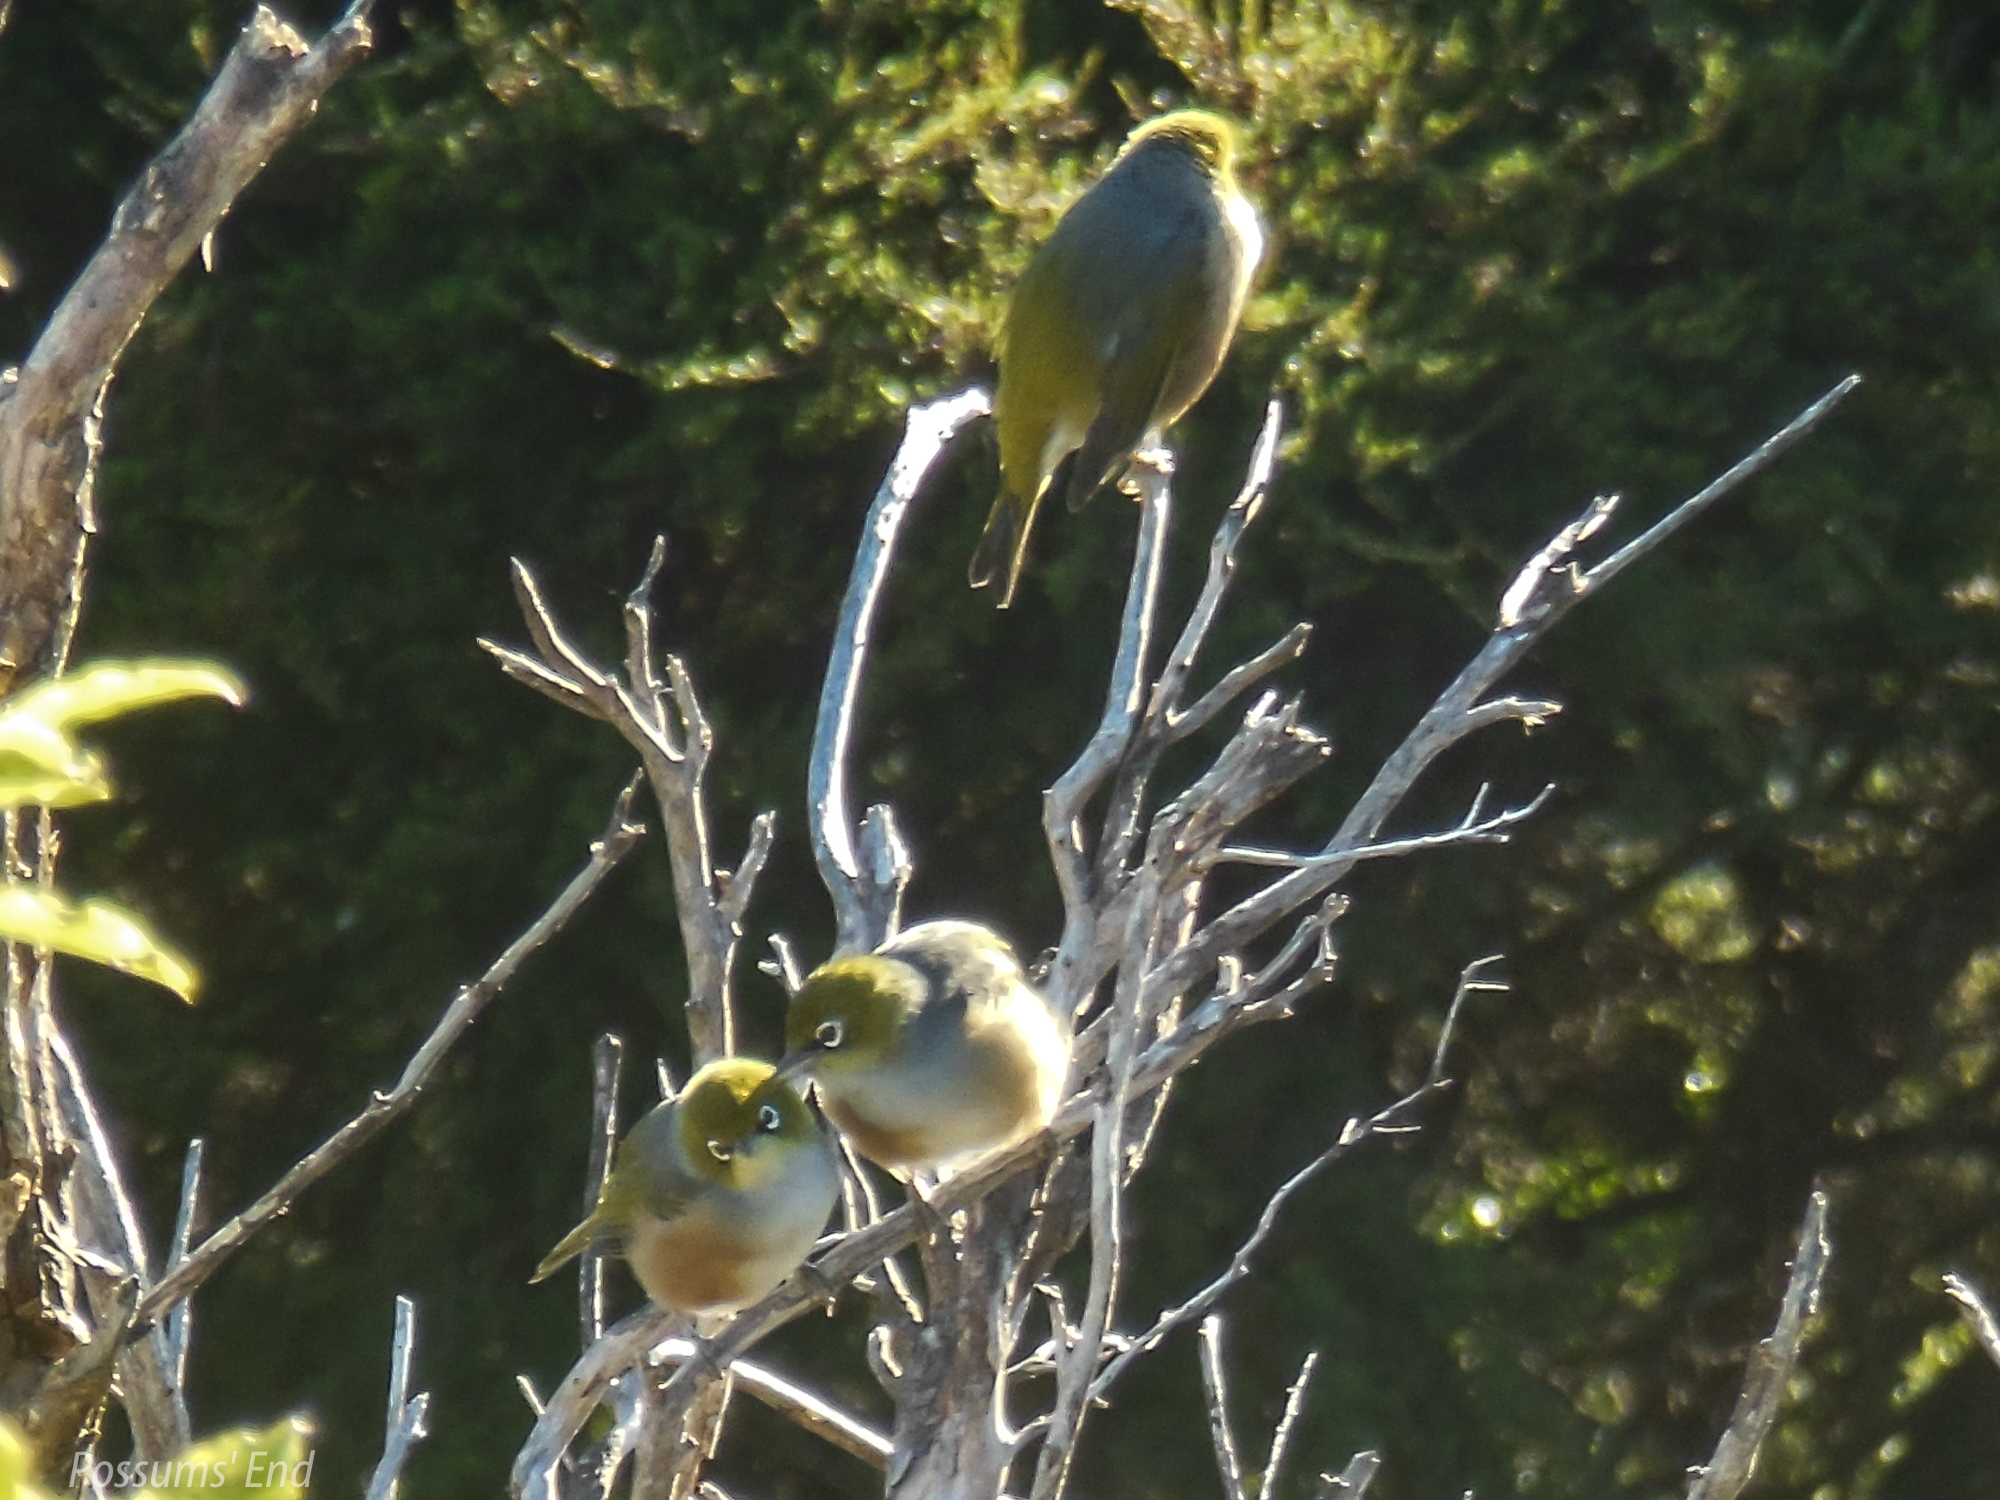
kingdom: Animalia
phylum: Chordata
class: Aves
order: Passeriformes
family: Zosteropidae
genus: Zosterops
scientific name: Zosterops lateralis
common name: Silvereye
